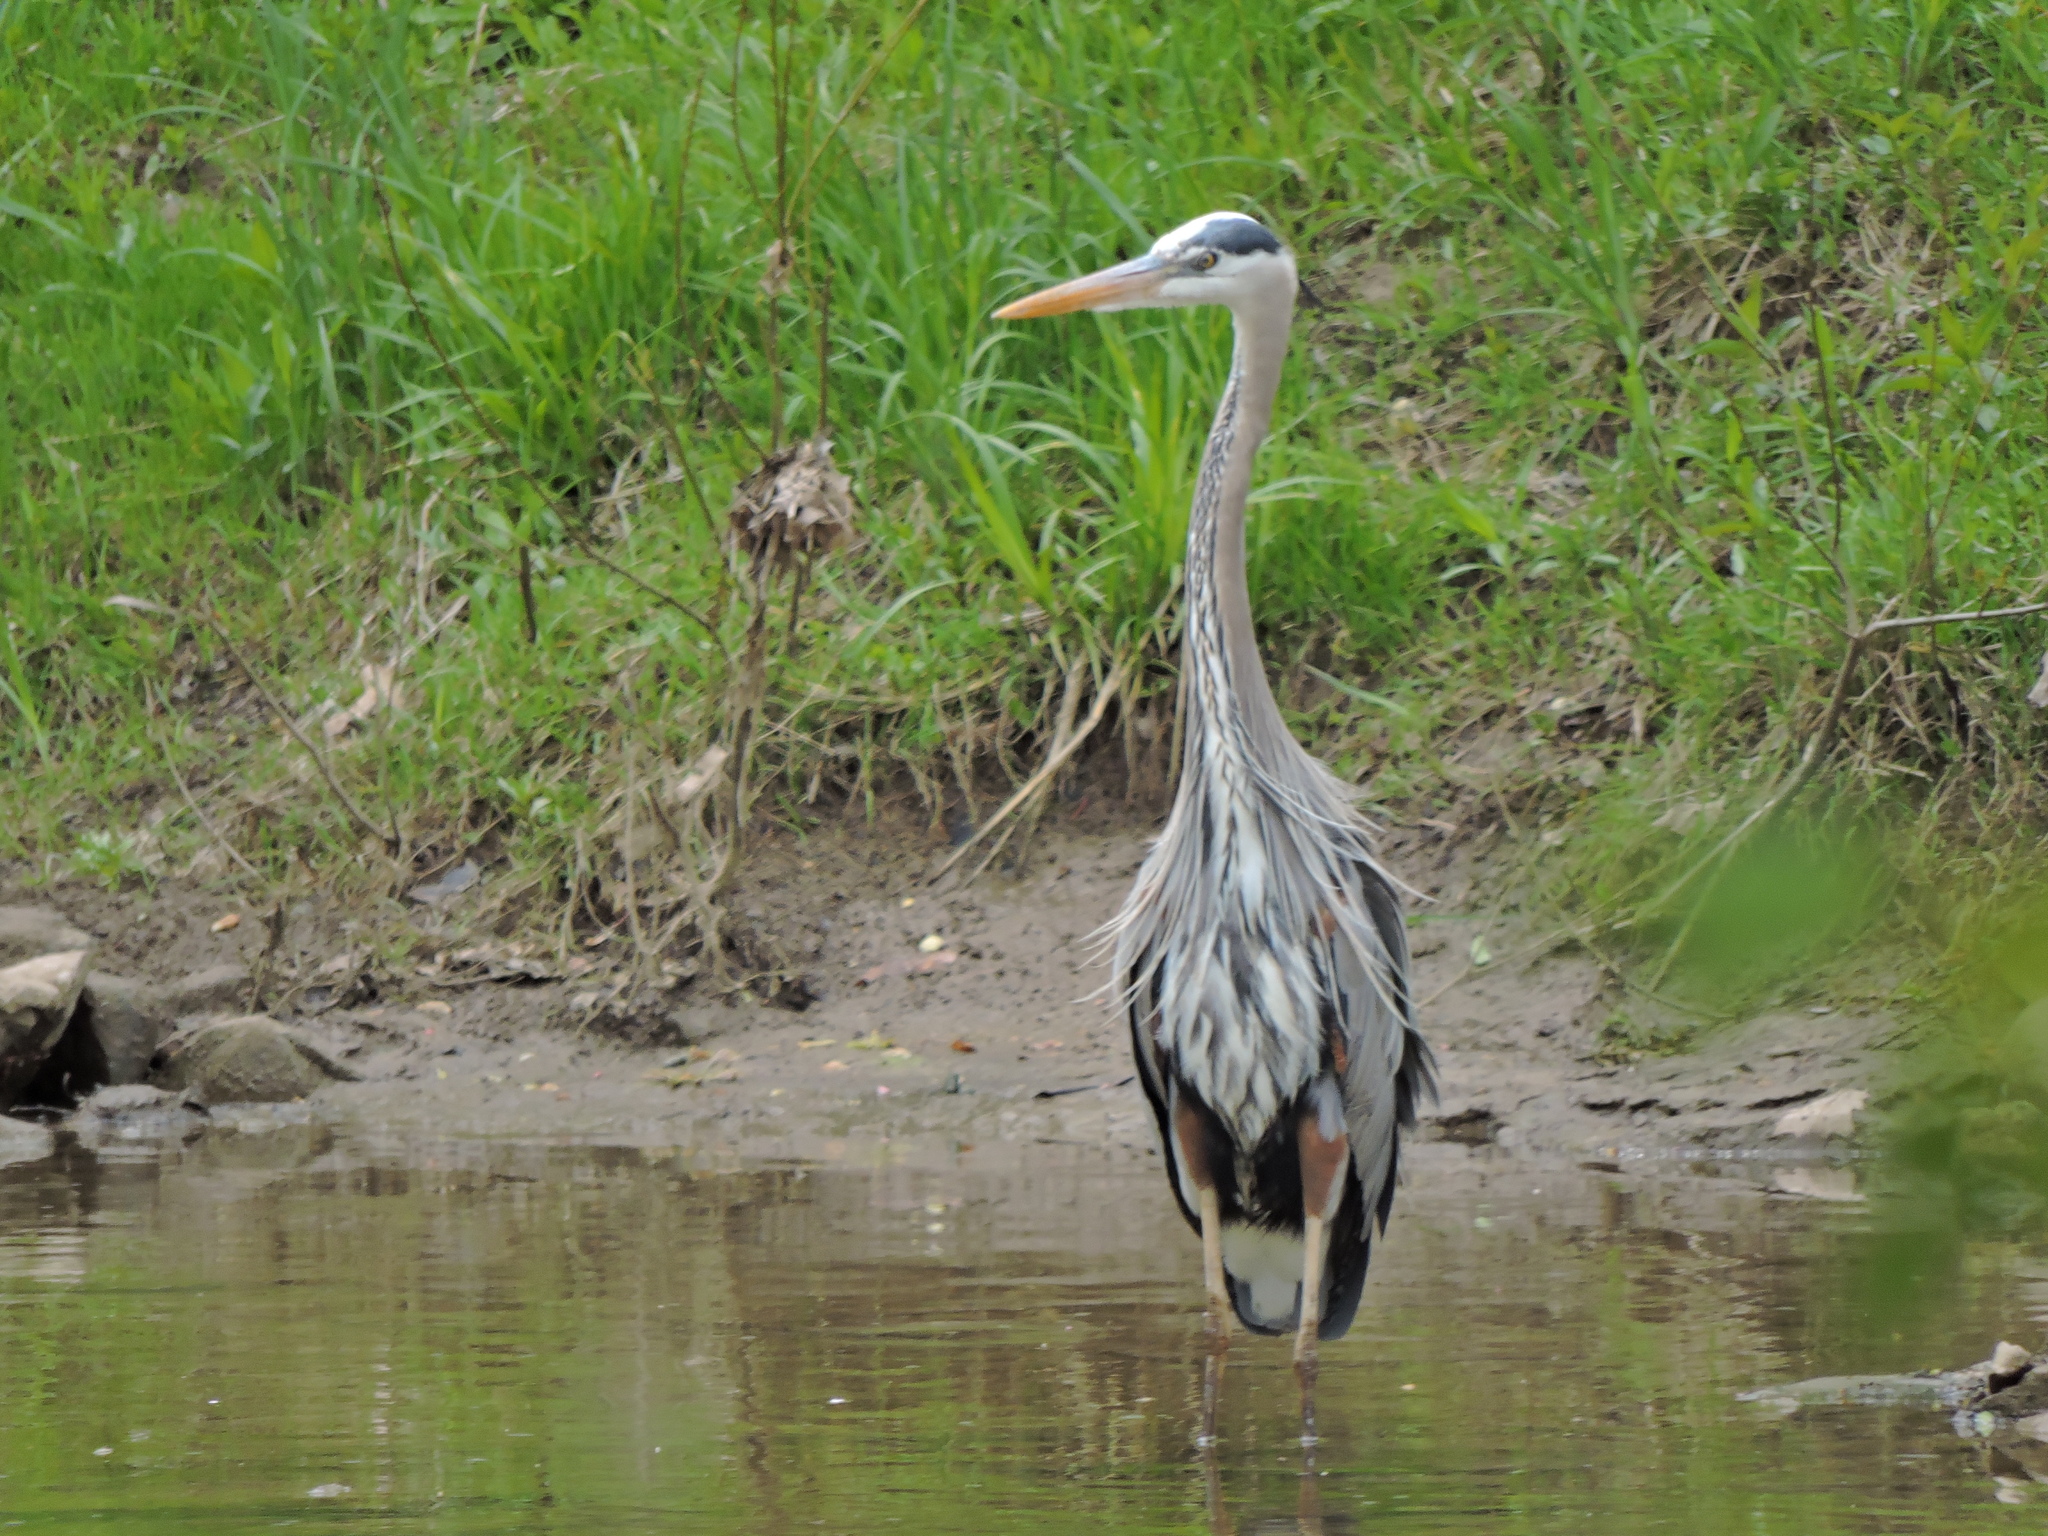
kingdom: Animalia
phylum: Chordata
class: Aves
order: Pelecaniformes
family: Ardeidae
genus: Ardea
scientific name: Ardea herodias
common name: Great blue heron
